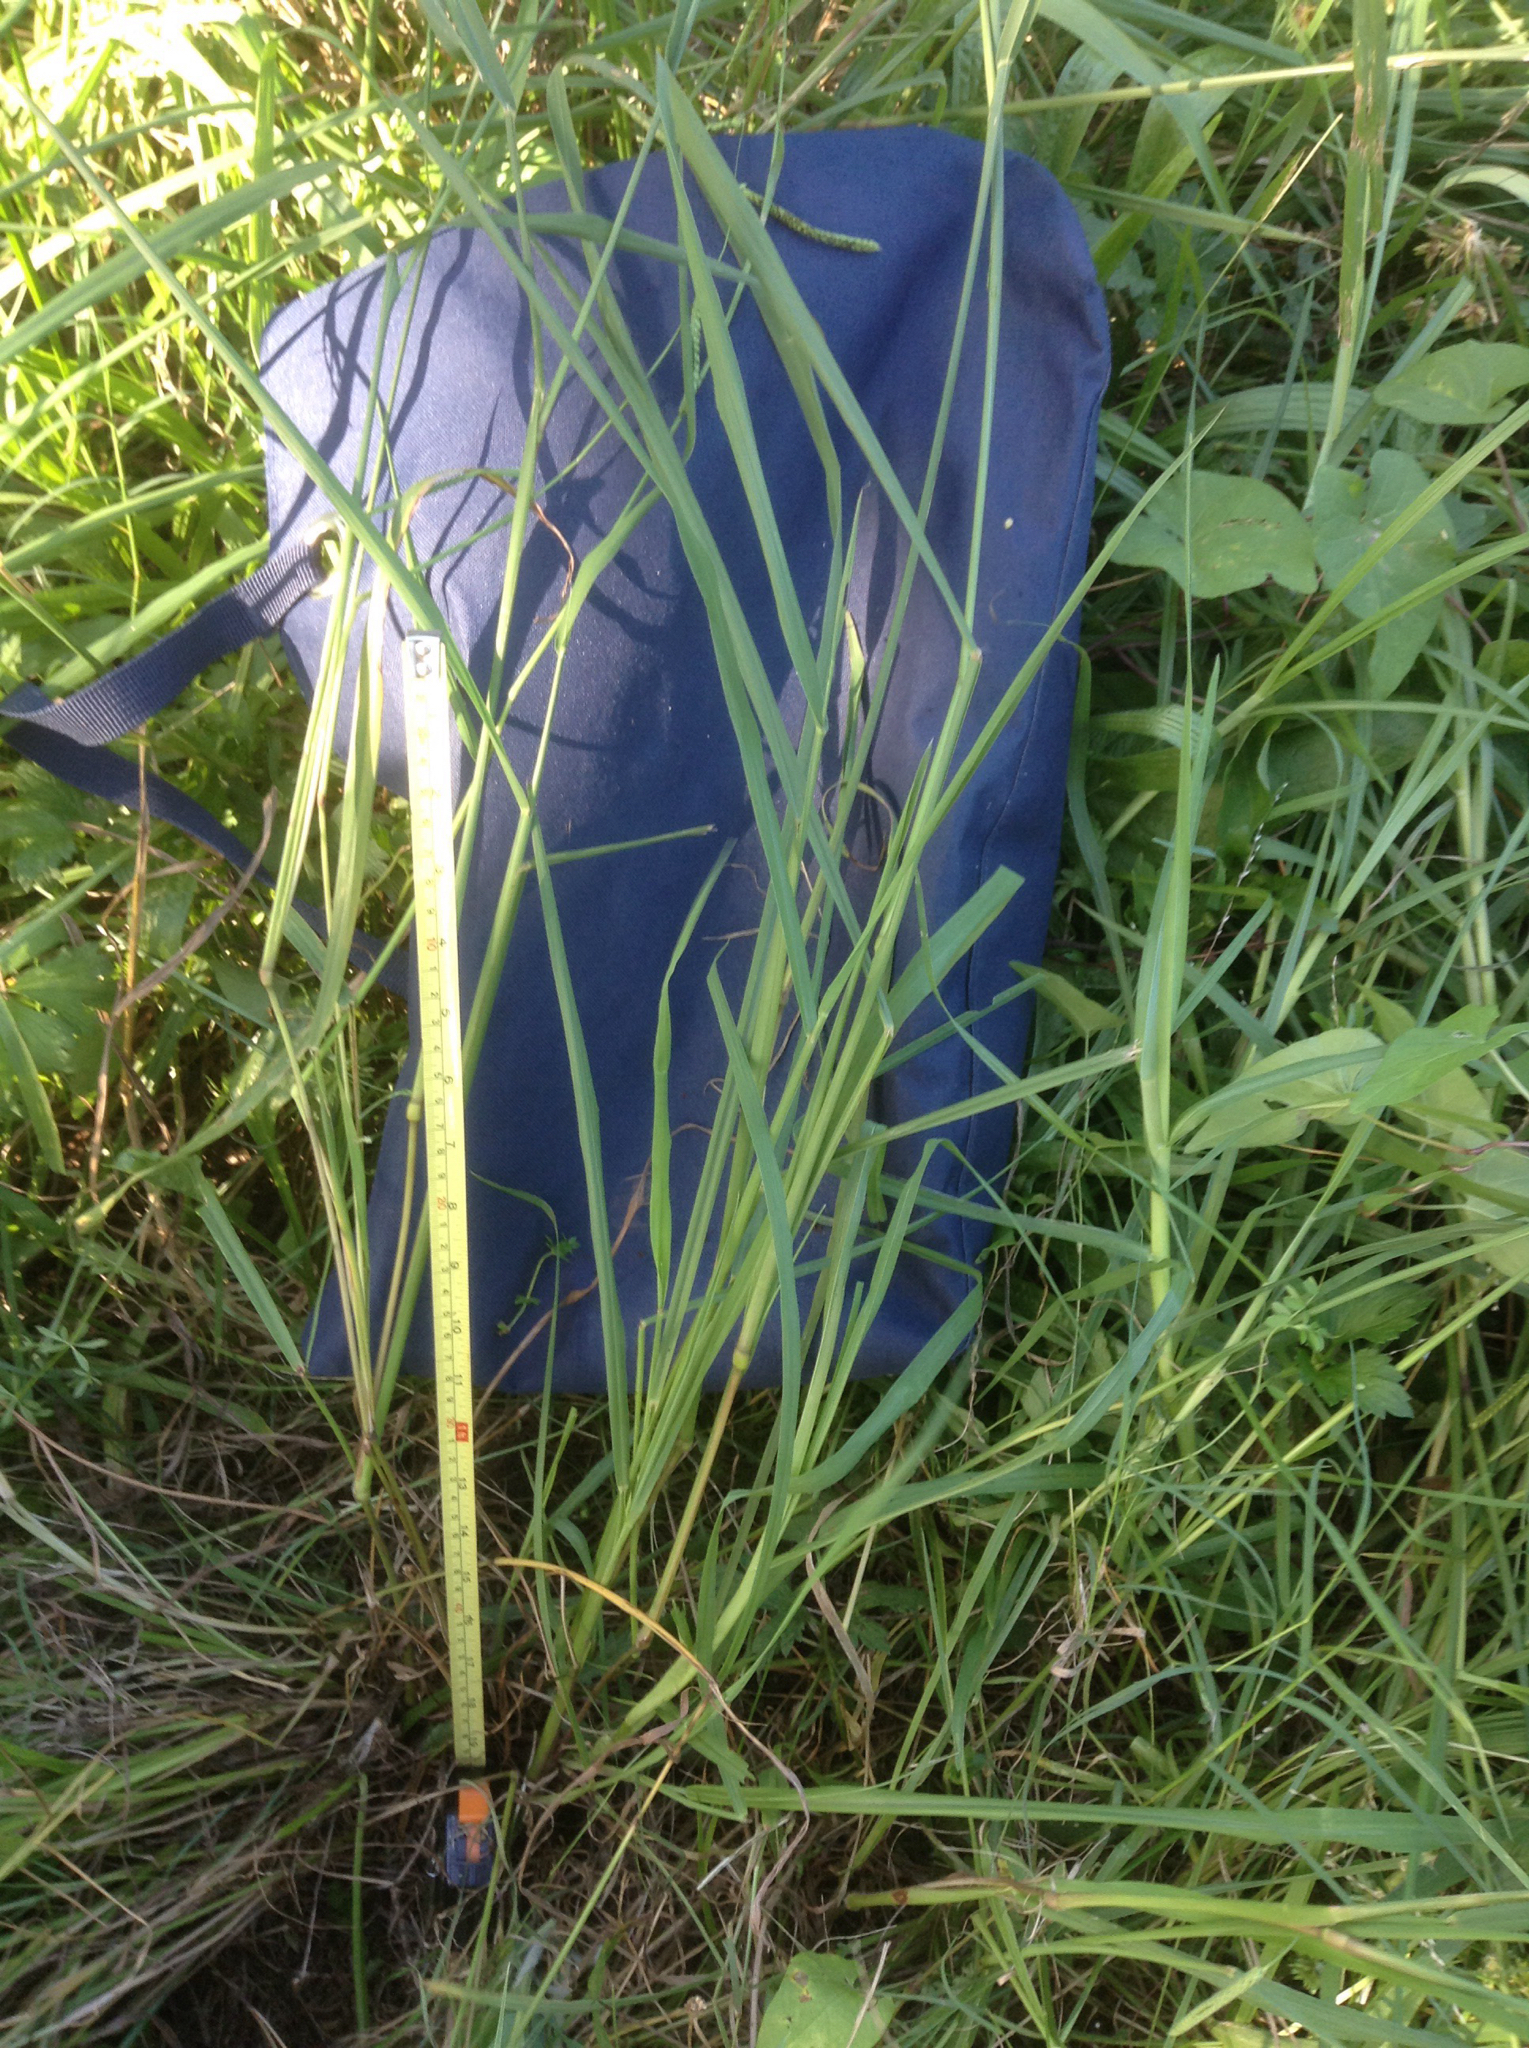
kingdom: Plantae
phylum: Tracheophyta
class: Liliopsida
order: Poales
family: Poaceae
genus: Paspalum
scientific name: Paspalum dilatatum
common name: Dallisgrass
